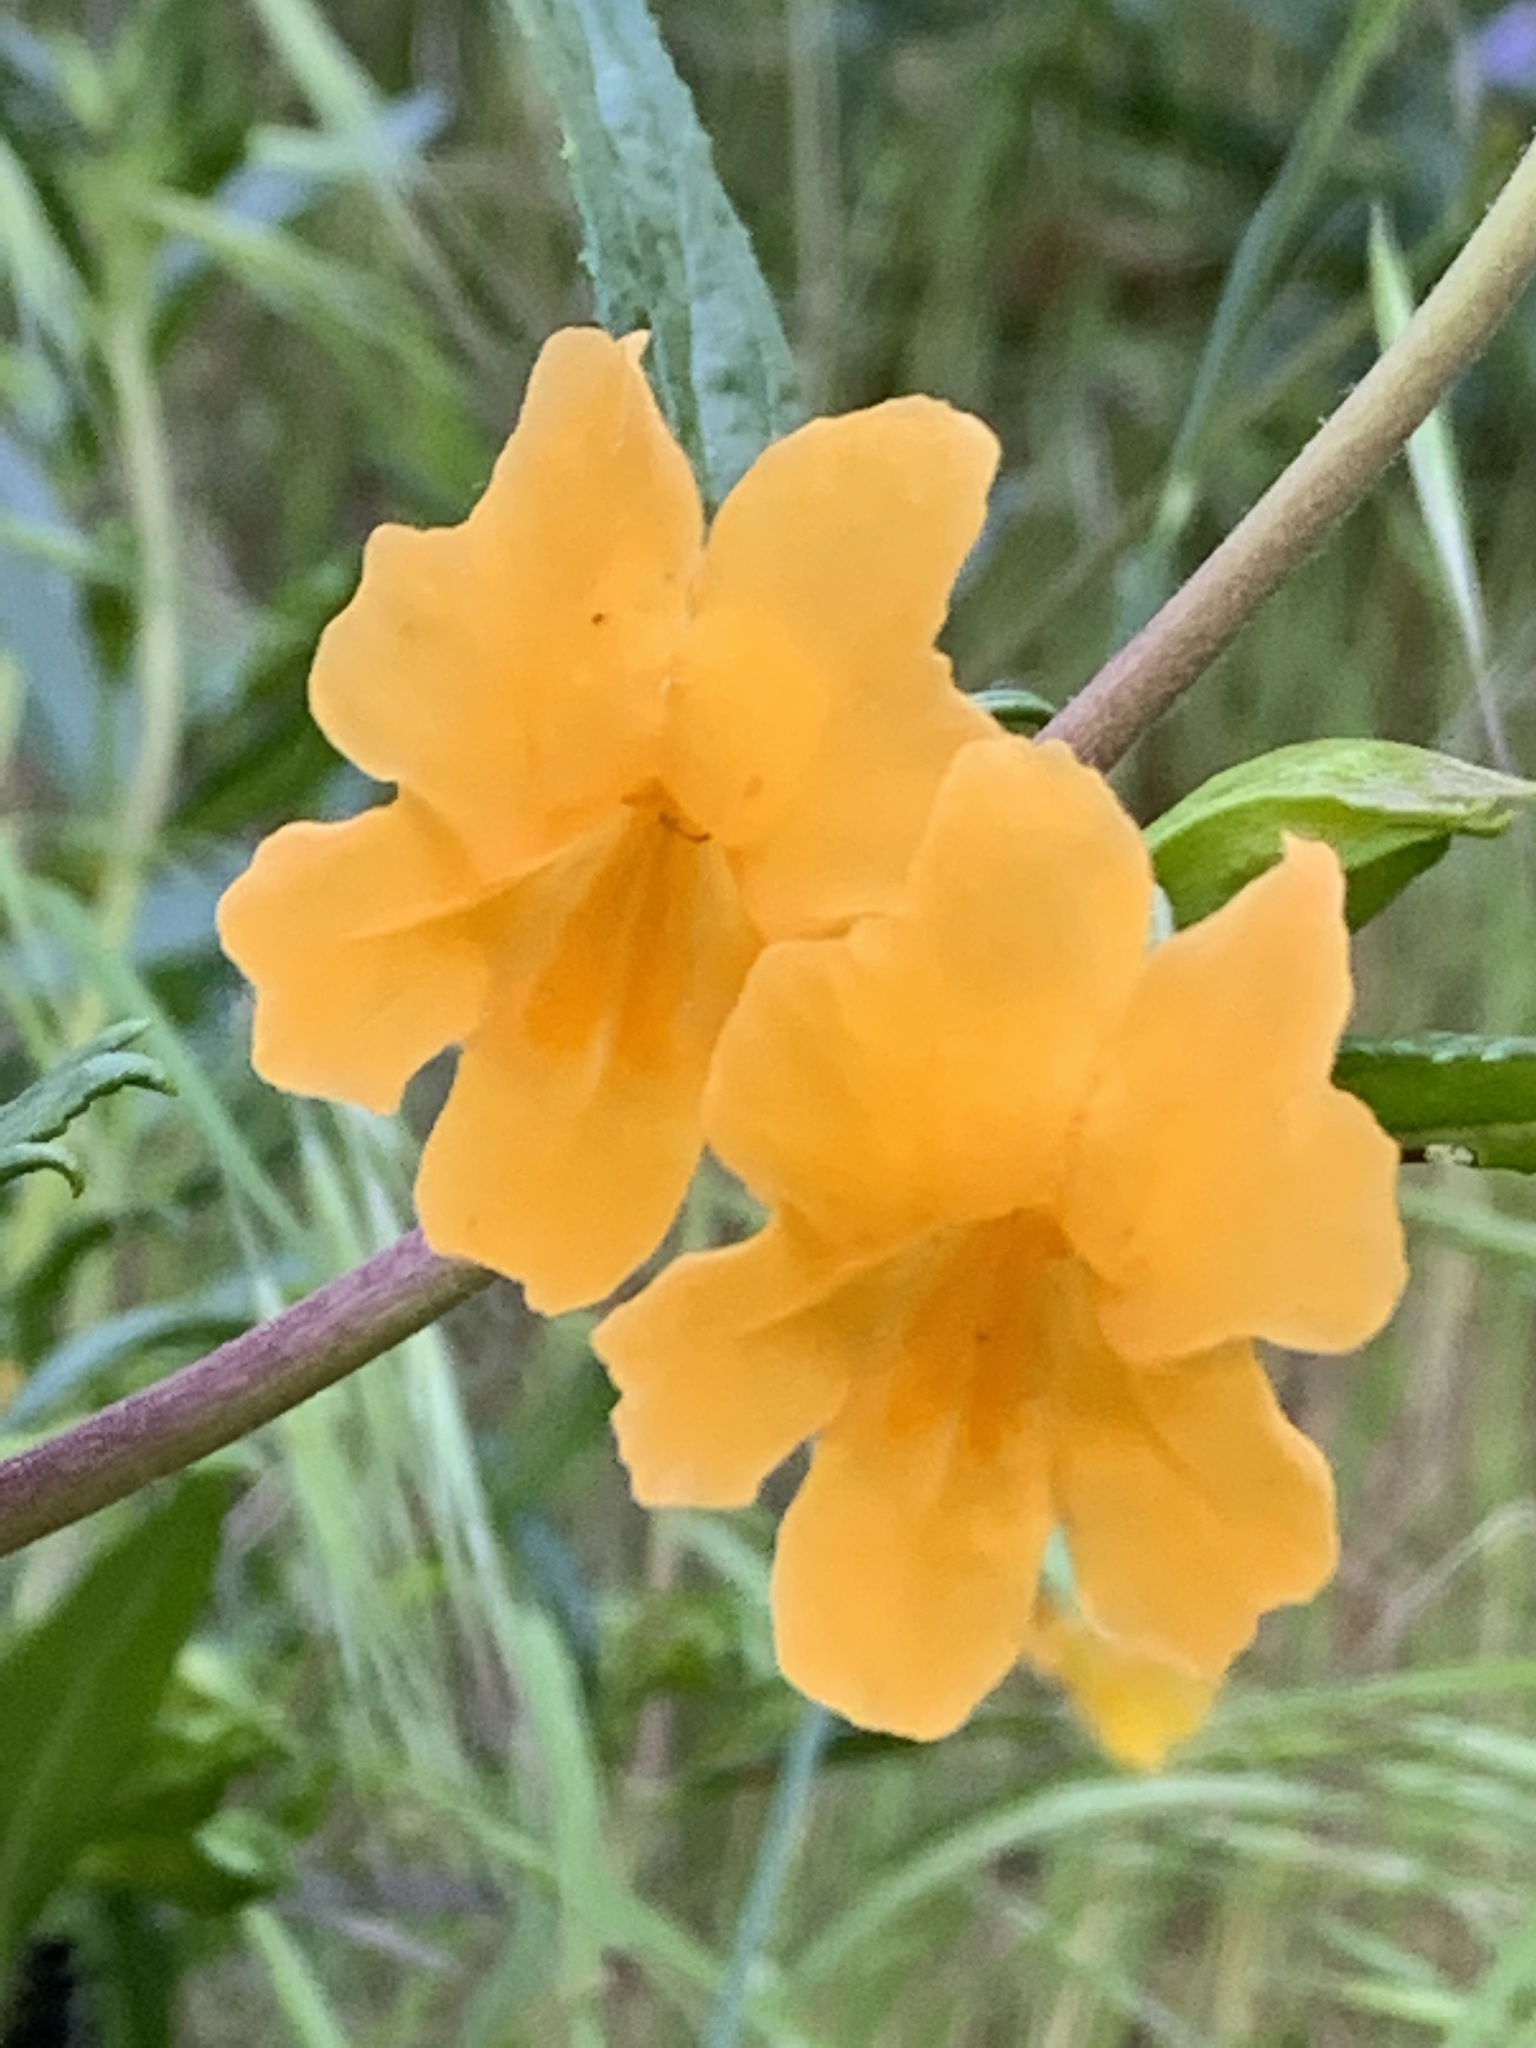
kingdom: Plantae
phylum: Tracheophyta
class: Magnoliopsida
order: Lamiales
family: Phrymaceae
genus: Diplacus
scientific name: Diplacus aurantiacus
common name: Bush monkey-flower
